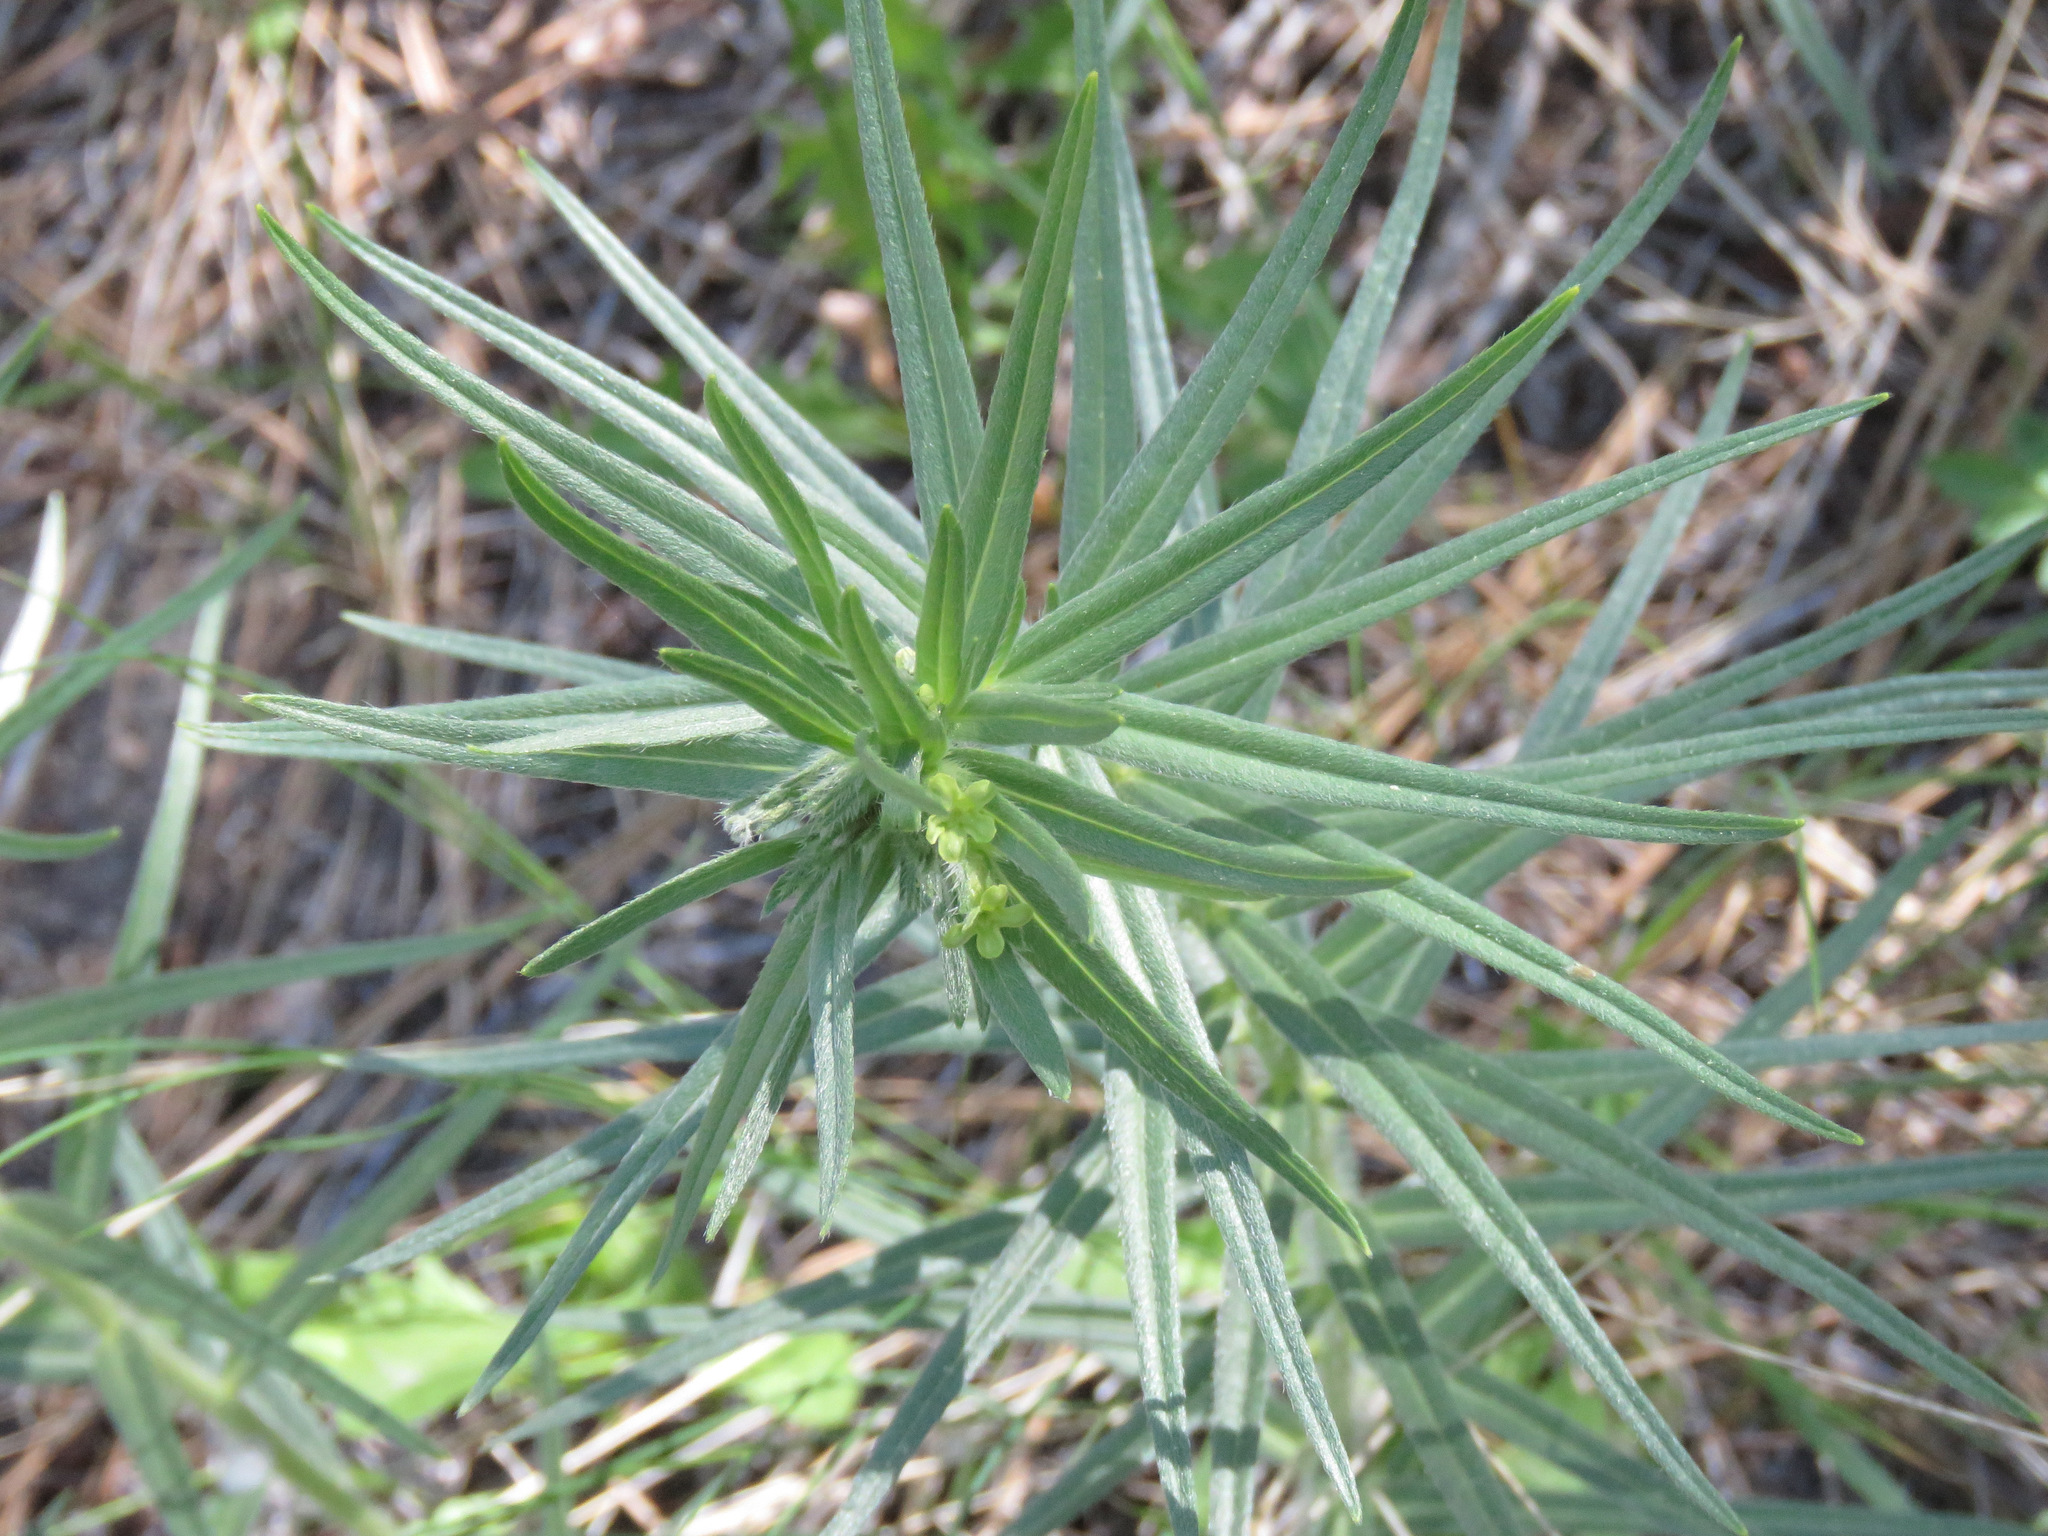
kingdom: Plantae
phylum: Tracheophyta
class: Magnoliopsida
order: Boraginales
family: Boraginaceae
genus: Lithospermum
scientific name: Lithospermum ruderale
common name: Western gromwell
